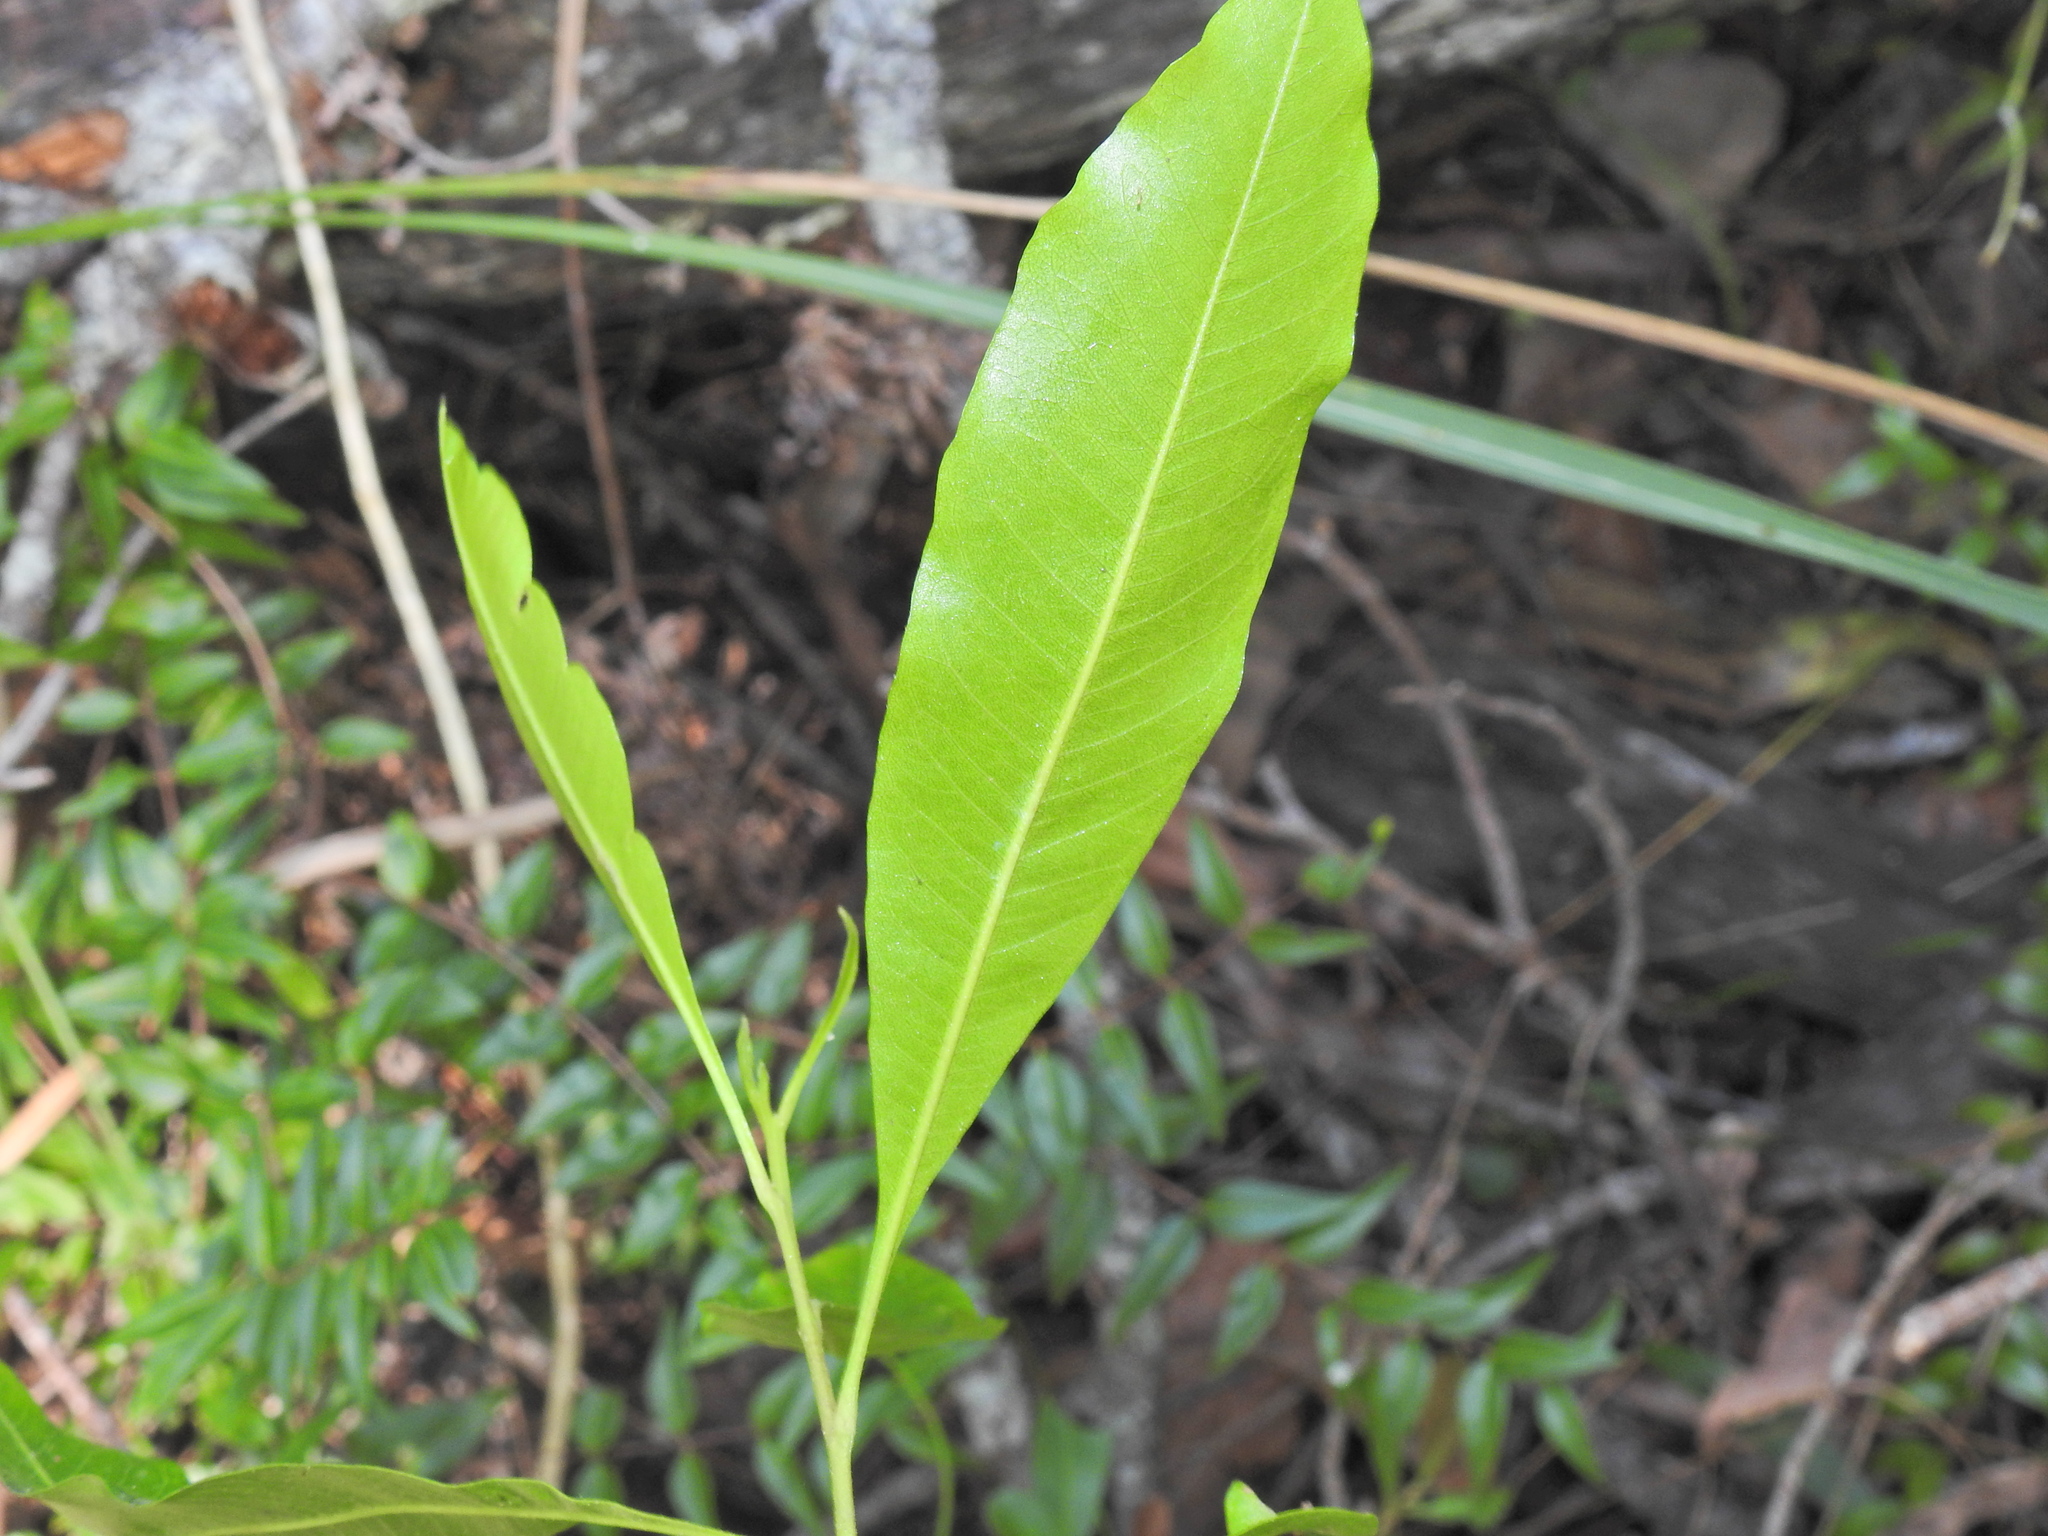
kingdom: Plantae
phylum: Tracheophyta
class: Magnoliopsida
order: Sapindales
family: Sapindaceae
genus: Dodonaea
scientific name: Dodonaea viscosa
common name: Hopbush
